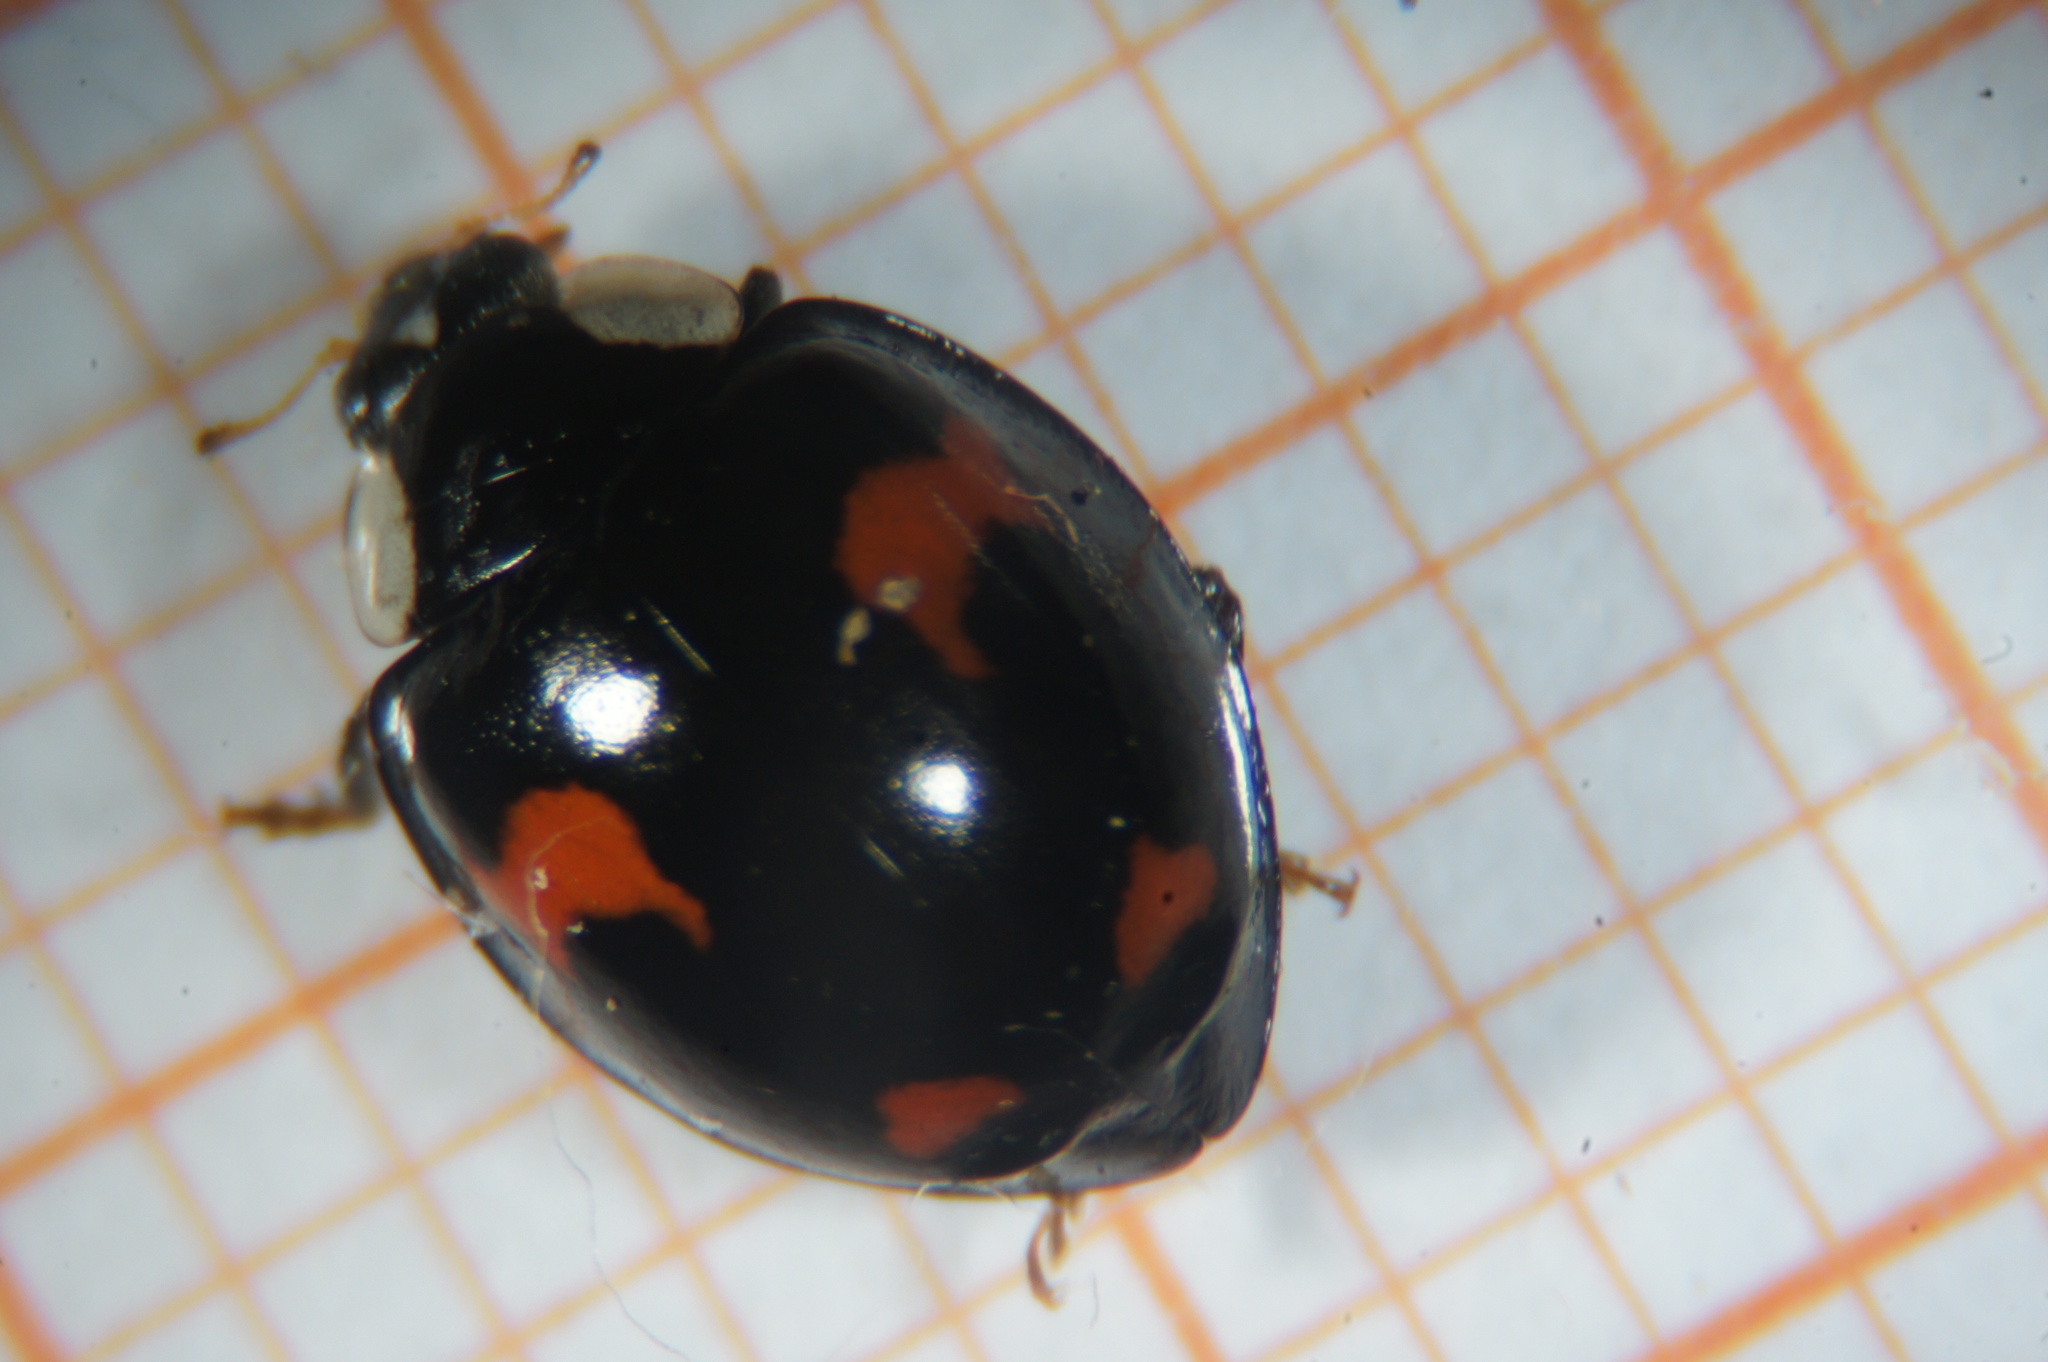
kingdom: Animalia
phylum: Arthropoda
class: Insecta
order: Coleoptera
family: Coccinellidae
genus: Harmonia
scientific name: Harmonia axyridis
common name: Harlequin ladybird
